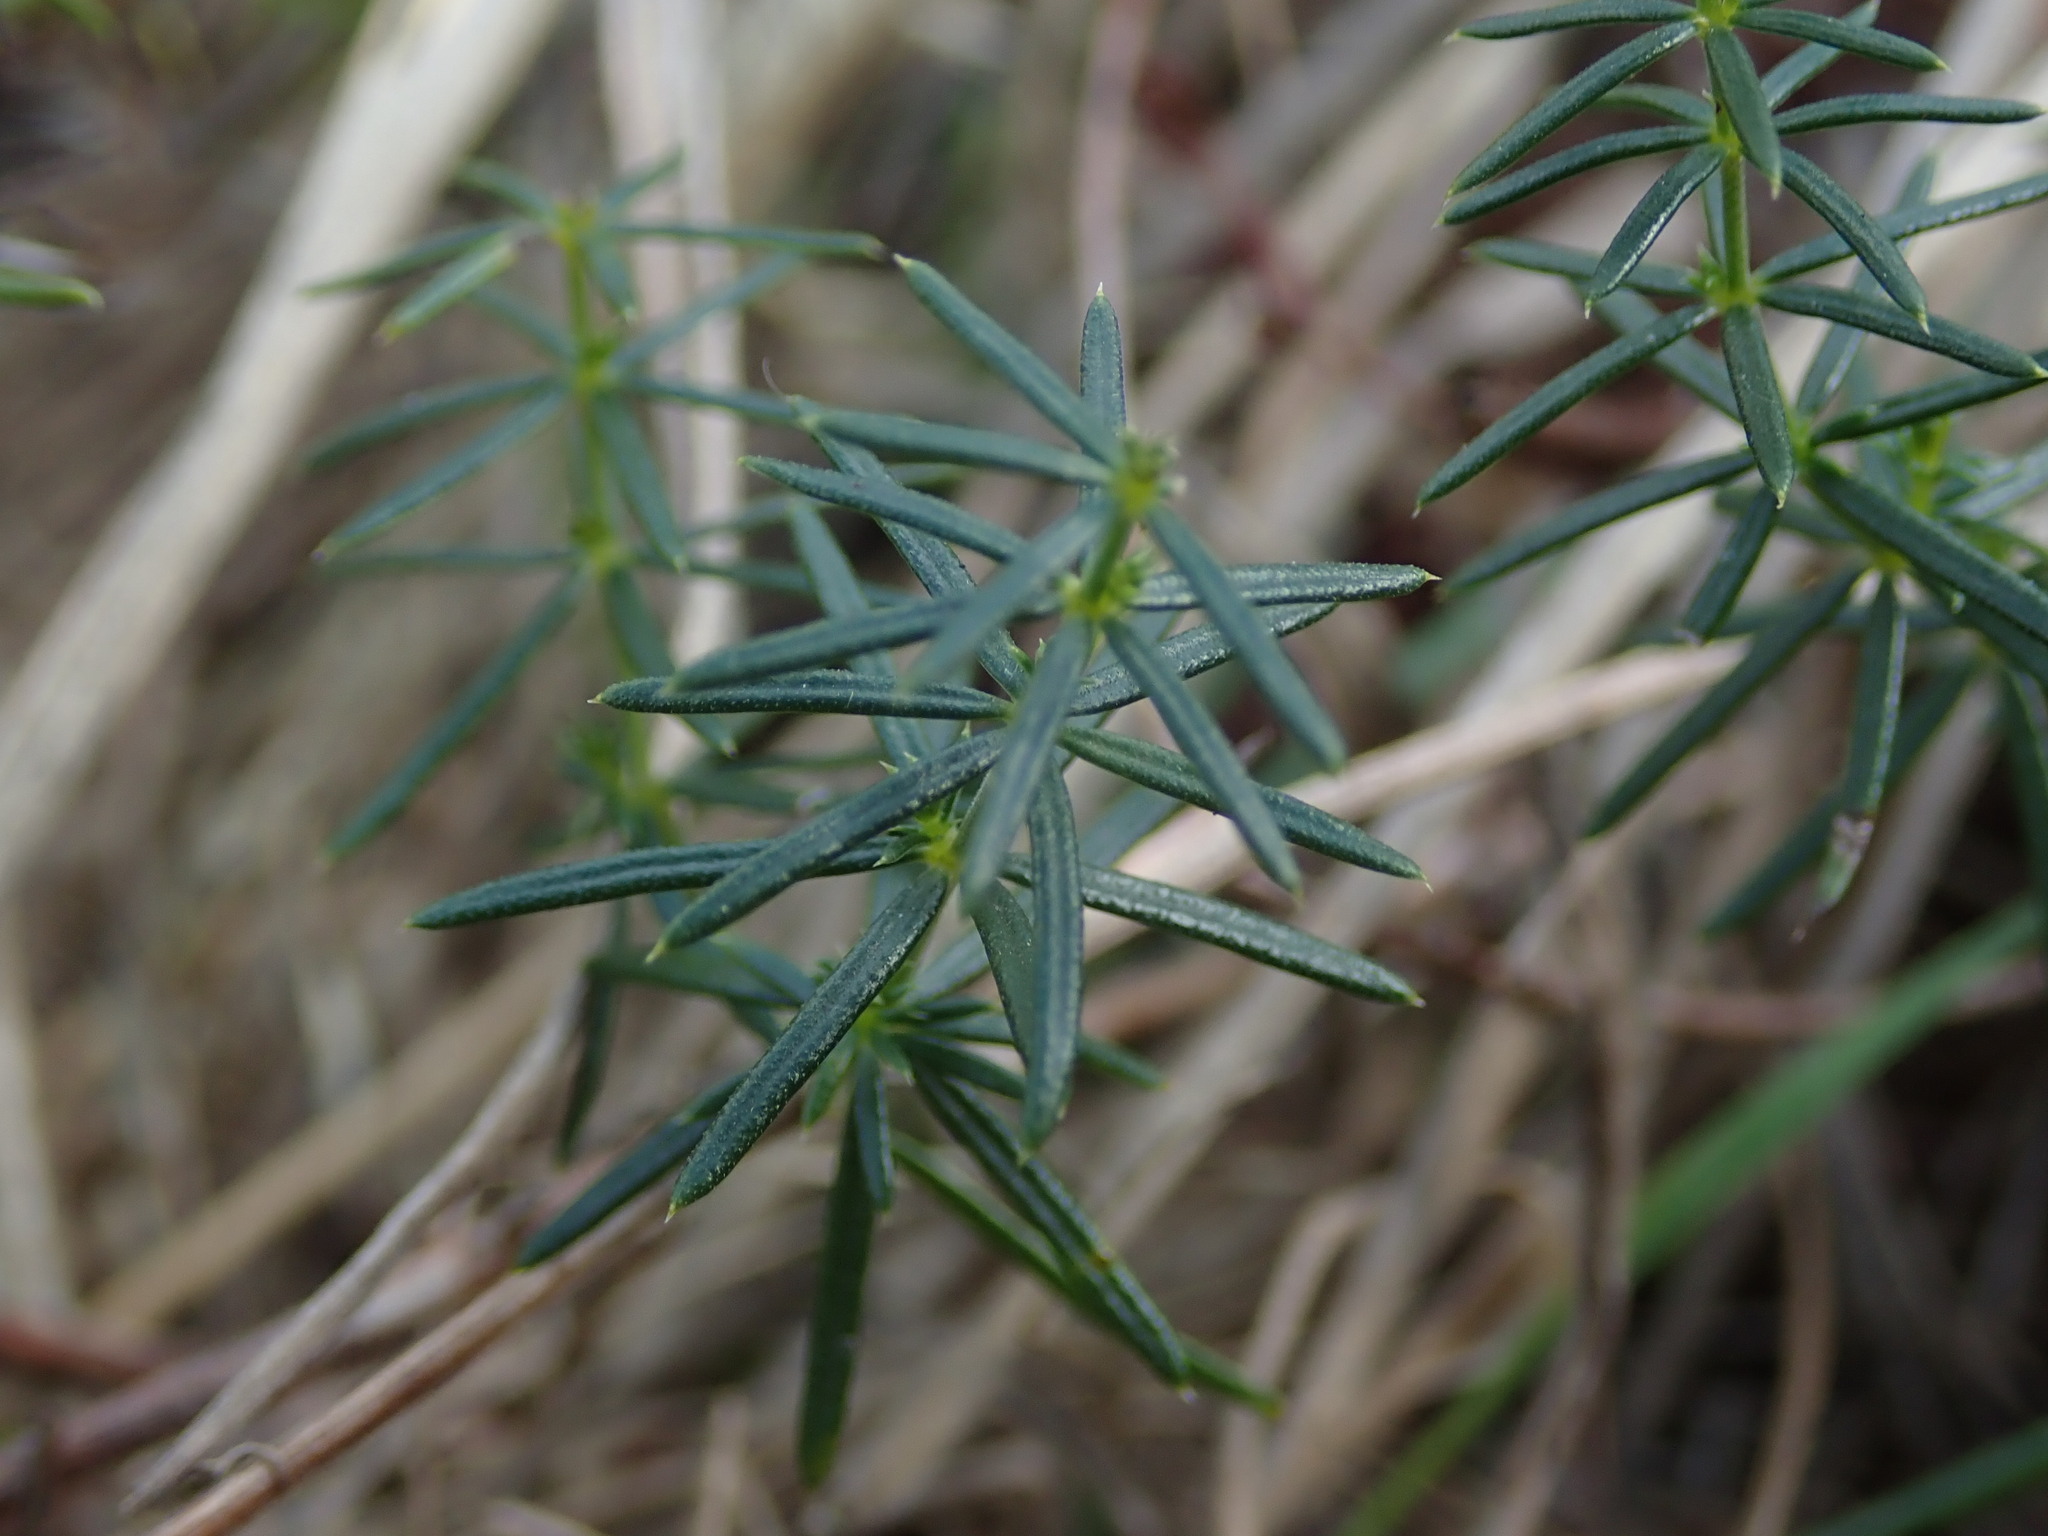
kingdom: Plantae
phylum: Tracheophyta
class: Magnoliopsida
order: Gentianales
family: Rubiaceae
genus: Galium
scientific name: Galium verum
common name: Lady's bedstraw
